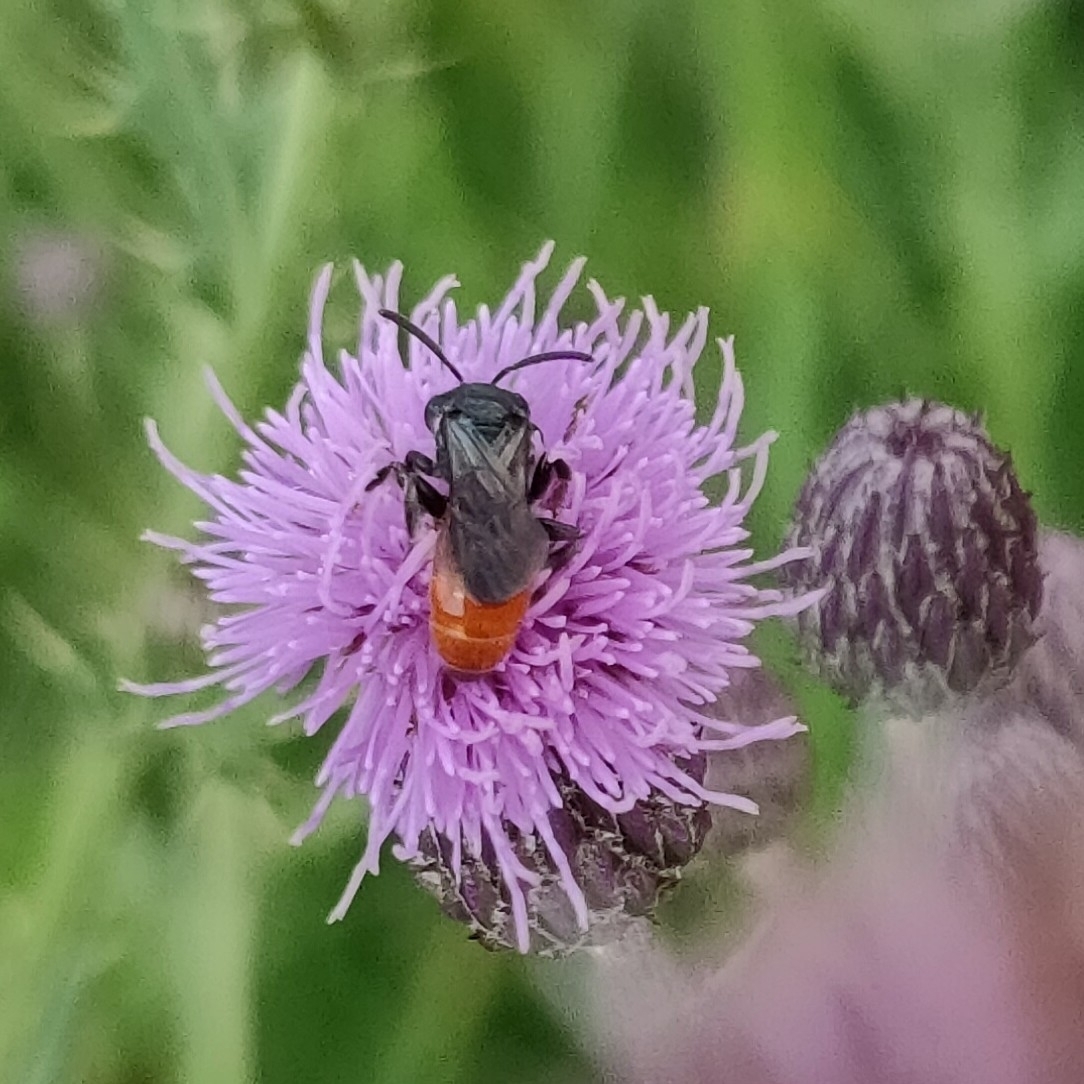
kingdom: Animalia
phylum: Arthropoda
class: Insecta
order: Hymenoptera
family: Halictidae
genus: Sphecodes
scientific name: Sphecodes albilabris
